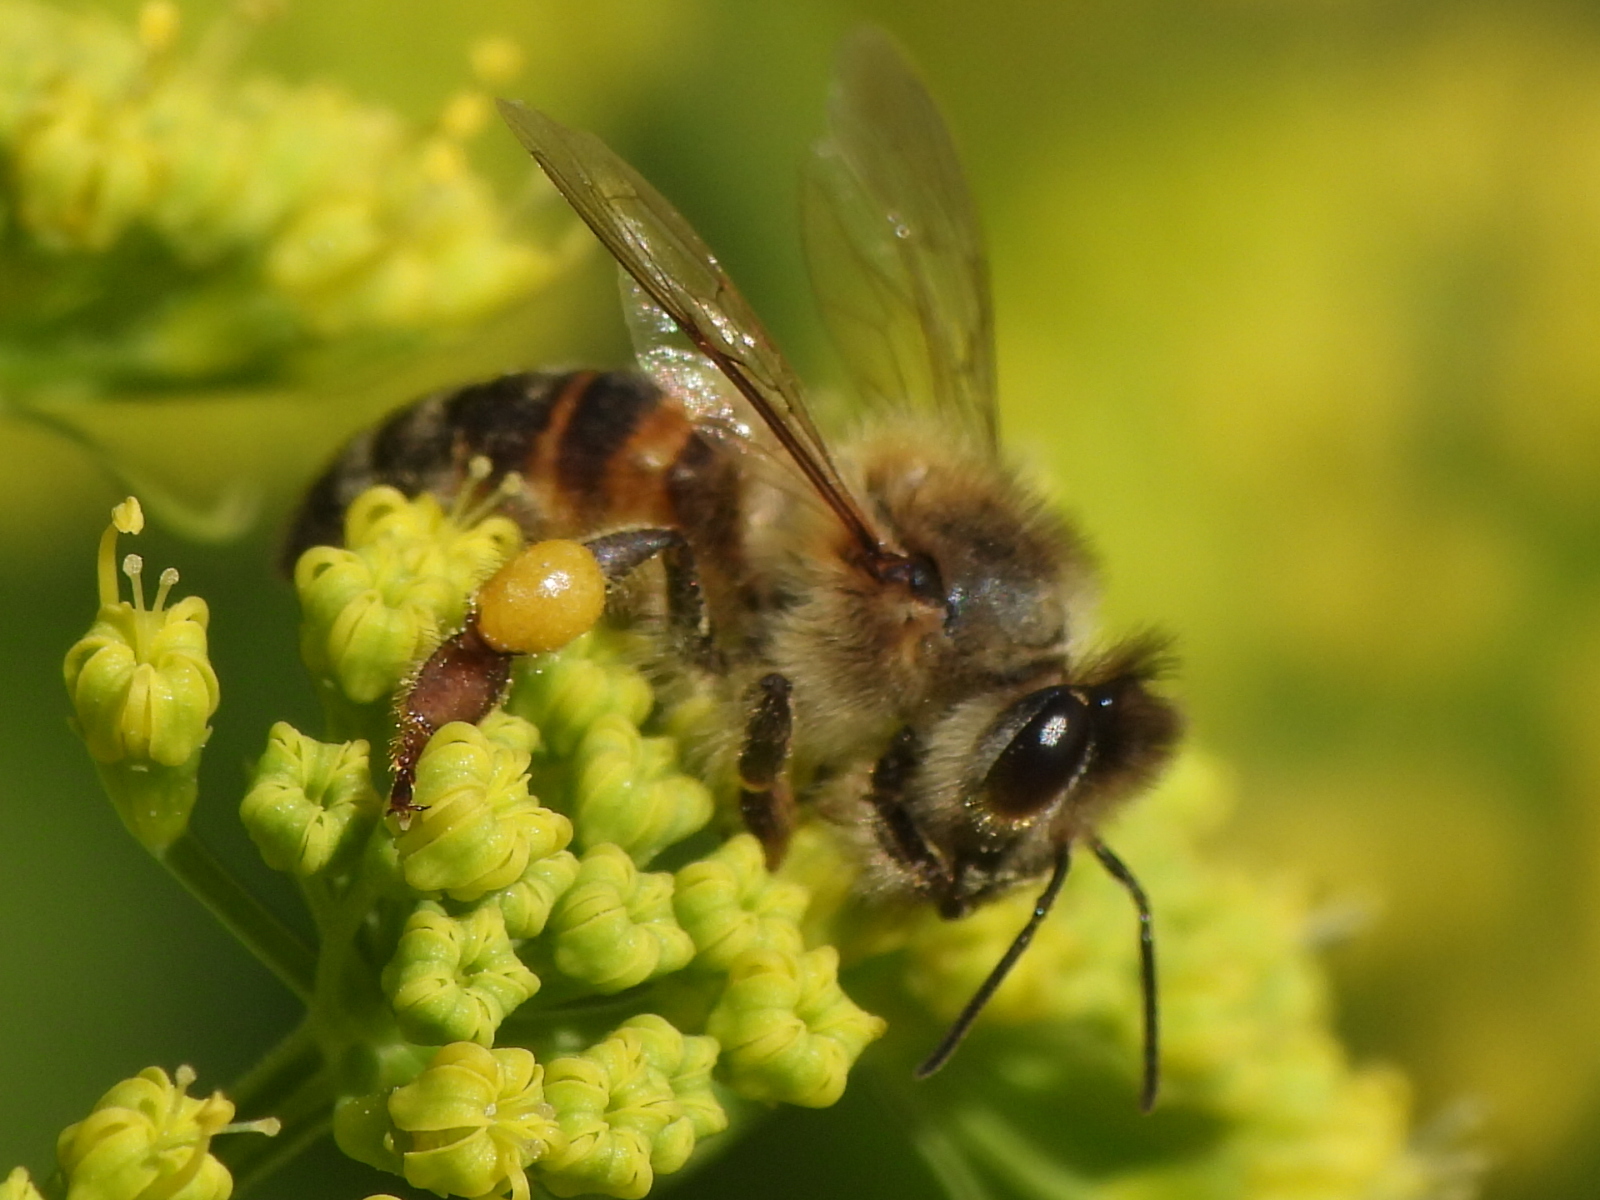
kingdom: Animalia
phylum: Arthropoda
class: Insecta
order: Hymenoptera
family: Apidae
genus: Apis
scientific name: Apis mellifera
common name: Honey bee
